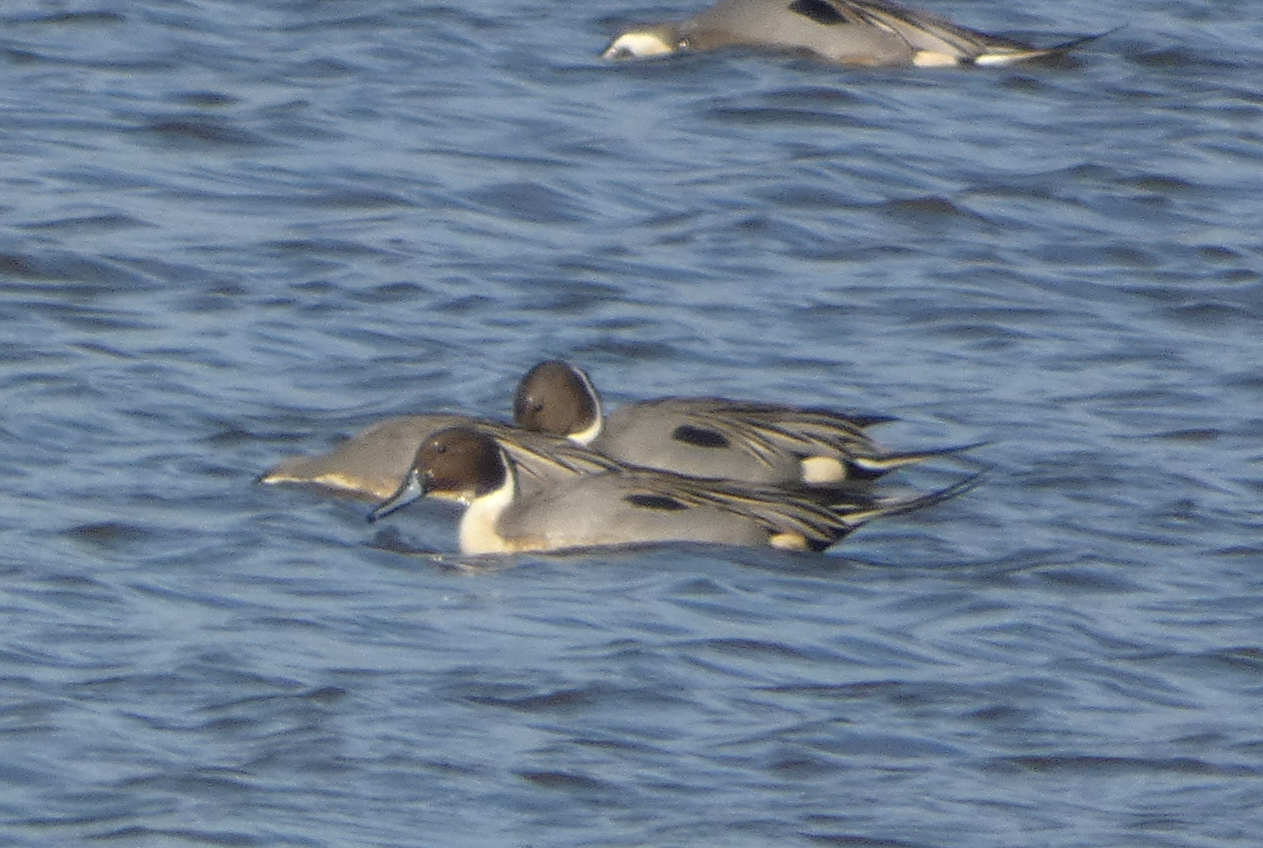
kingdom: Animalia
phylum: Chordata
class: Aves
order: Anseriformes
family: Anatidae
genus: Anas
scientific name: Anas acuta
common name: Northern pintail
